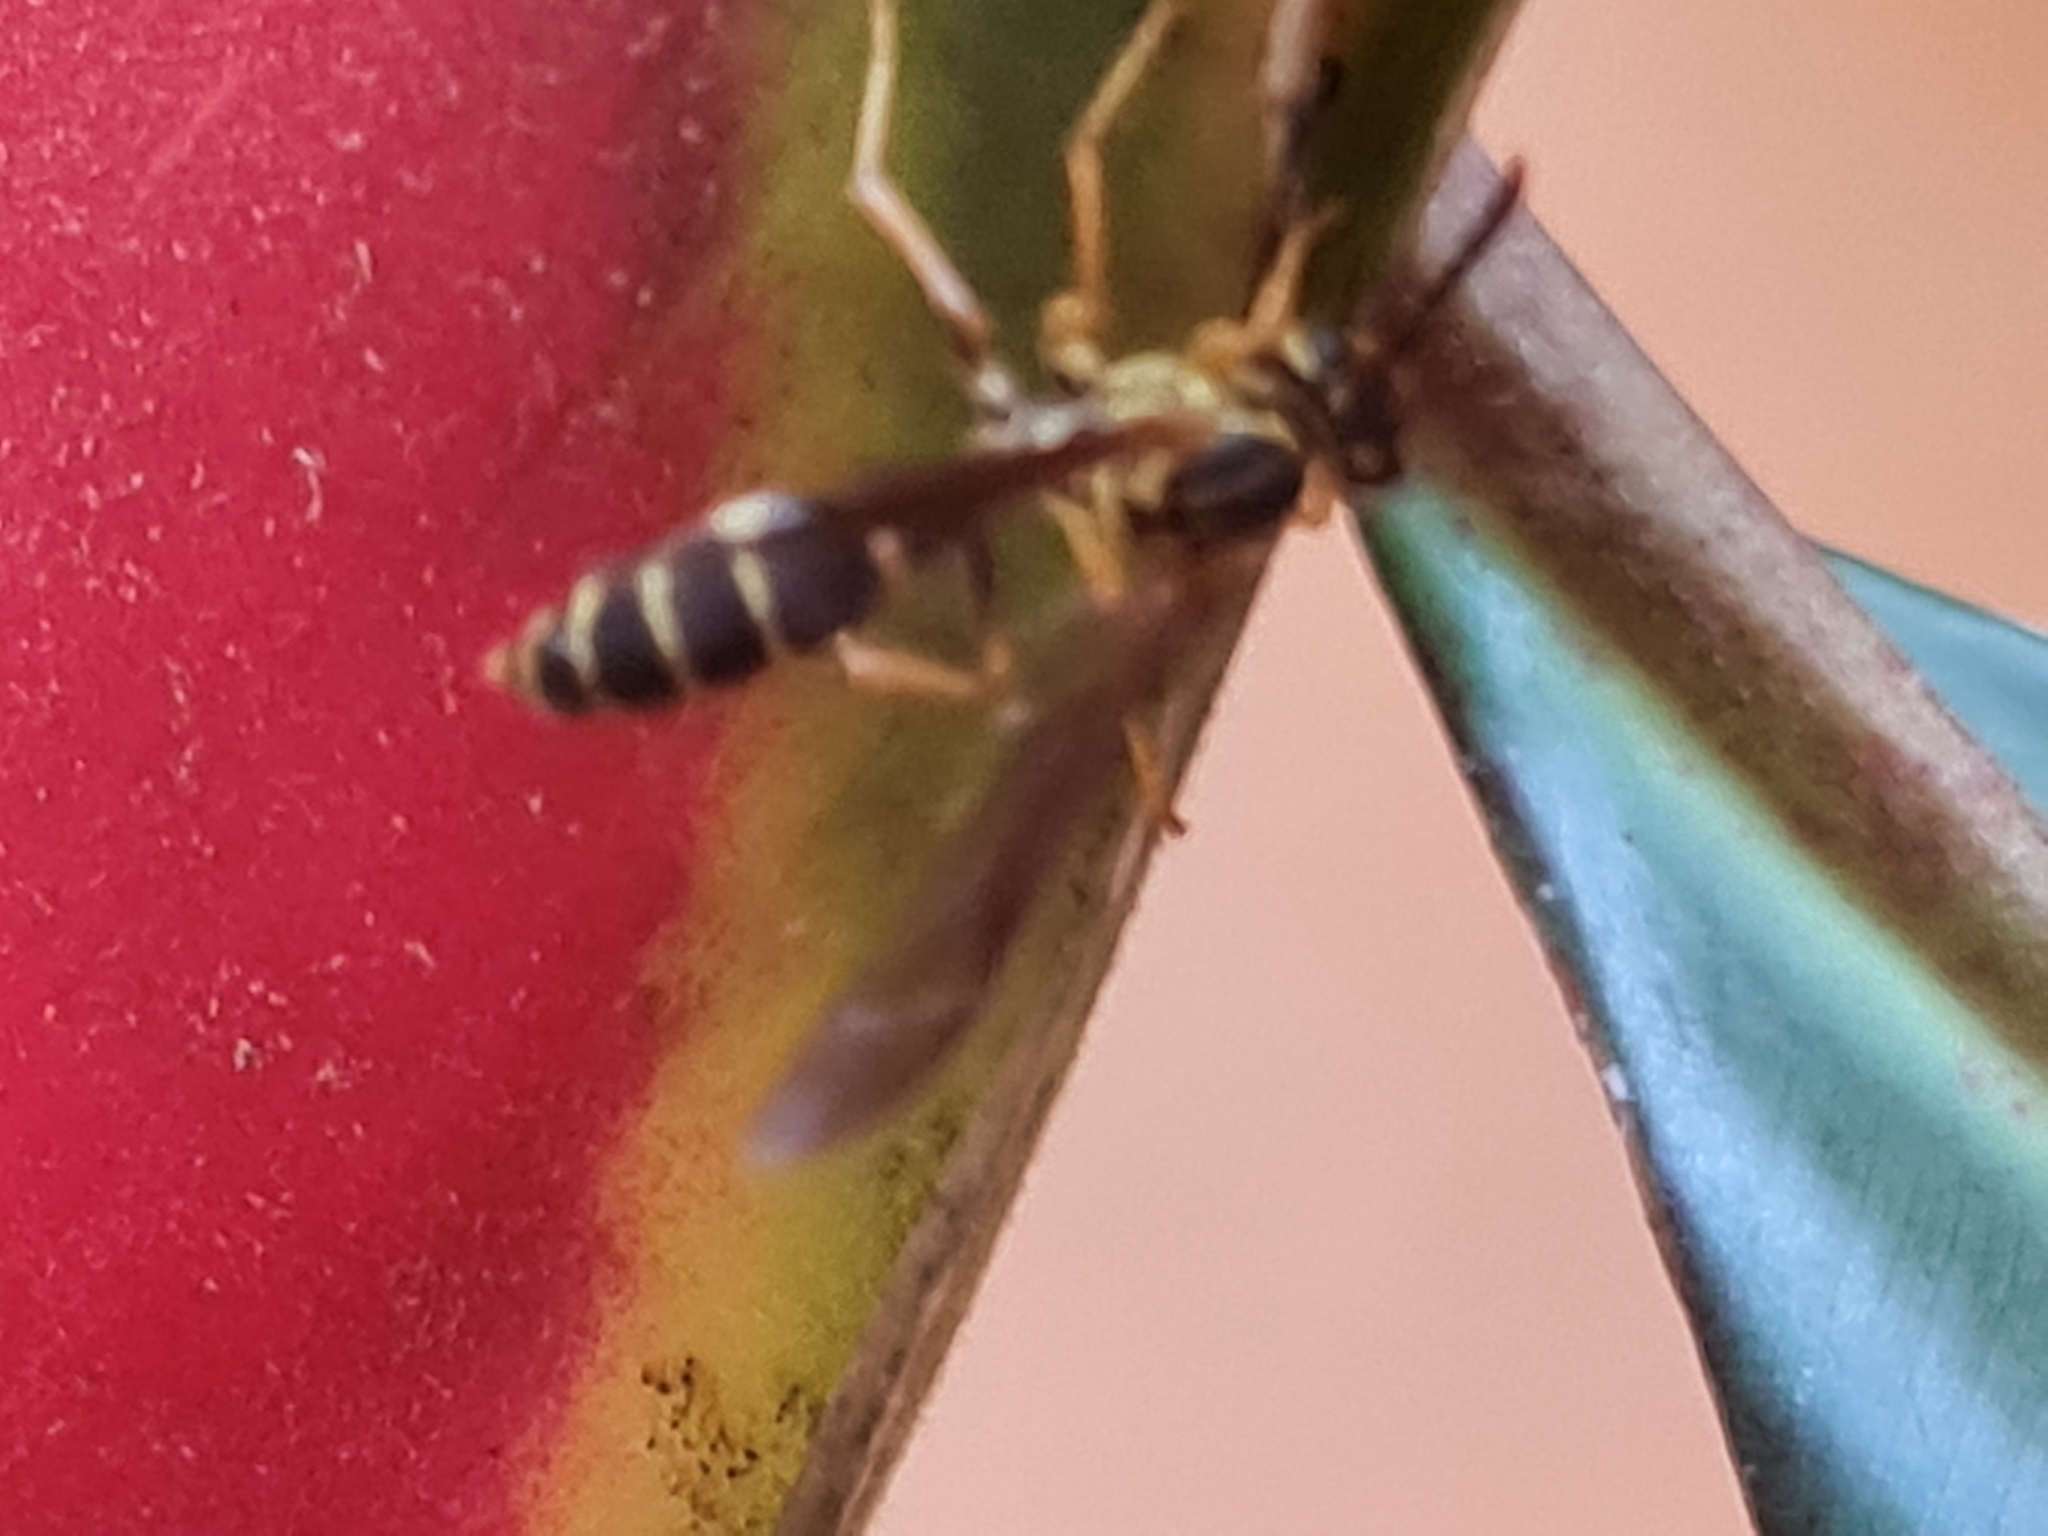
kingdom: Animalia
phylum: Arthropoda
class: Insecta
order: Hymenoptera
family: Vespidae
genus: Agelaia
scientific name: Agelaia multipicta
